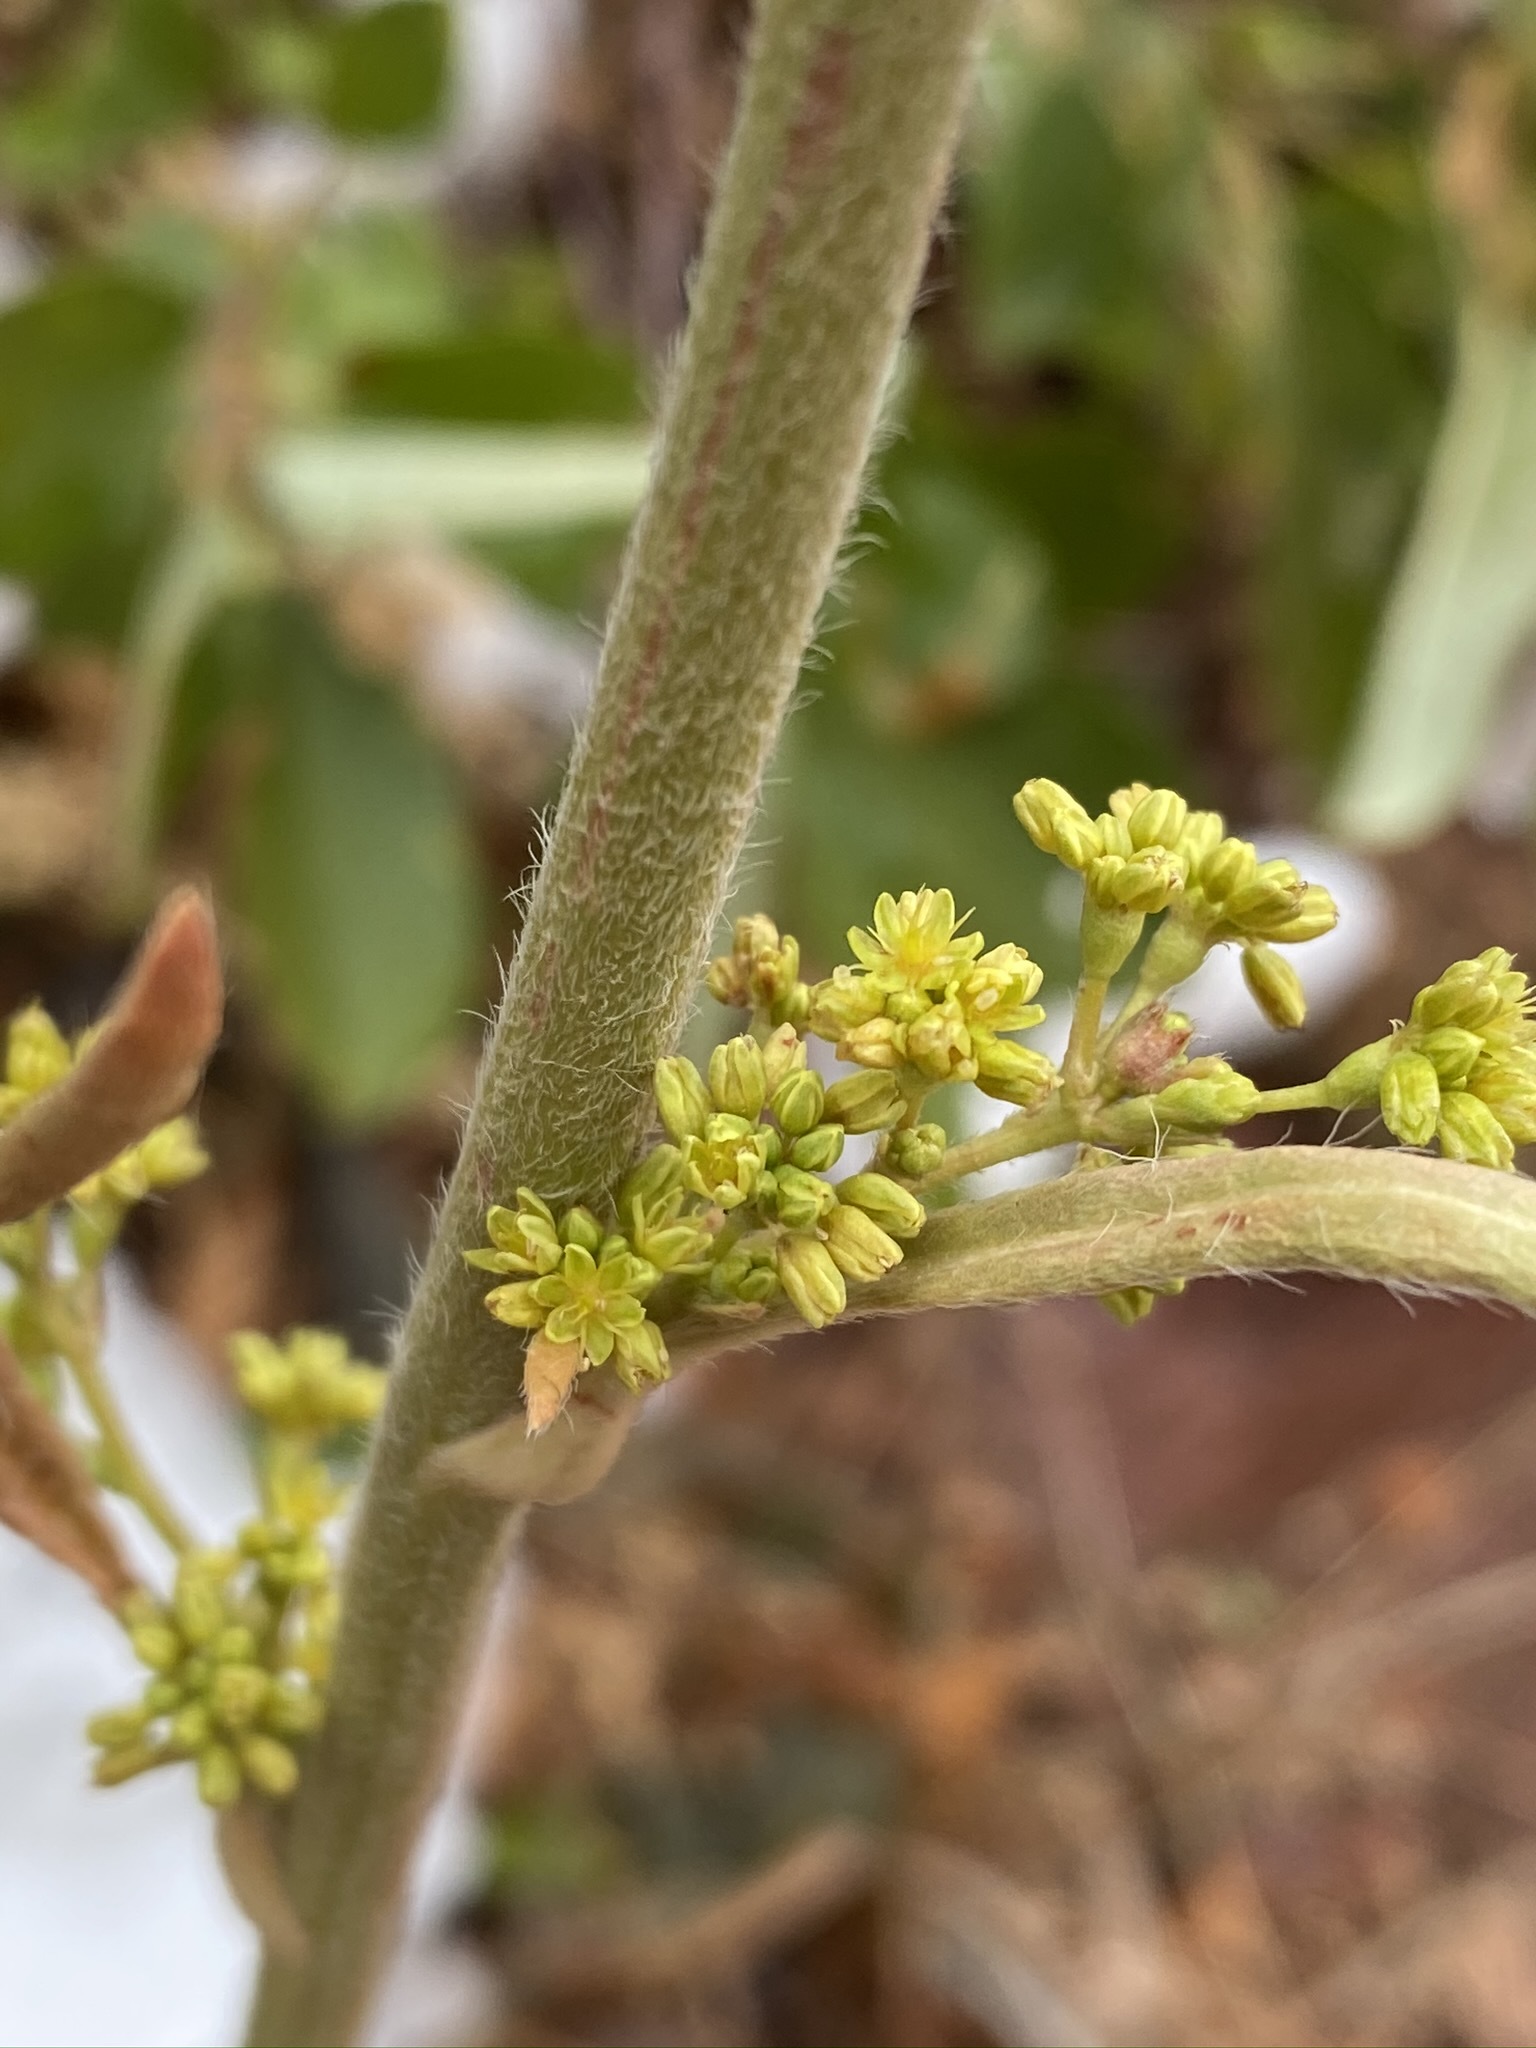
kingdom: Plantae
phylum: Tracheophyta
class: Magnoliopsida
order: Caryophyllales
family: Polygonaceae
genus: Eriogonum
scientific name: Eriogonum alatum
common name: Winged eriogonum
